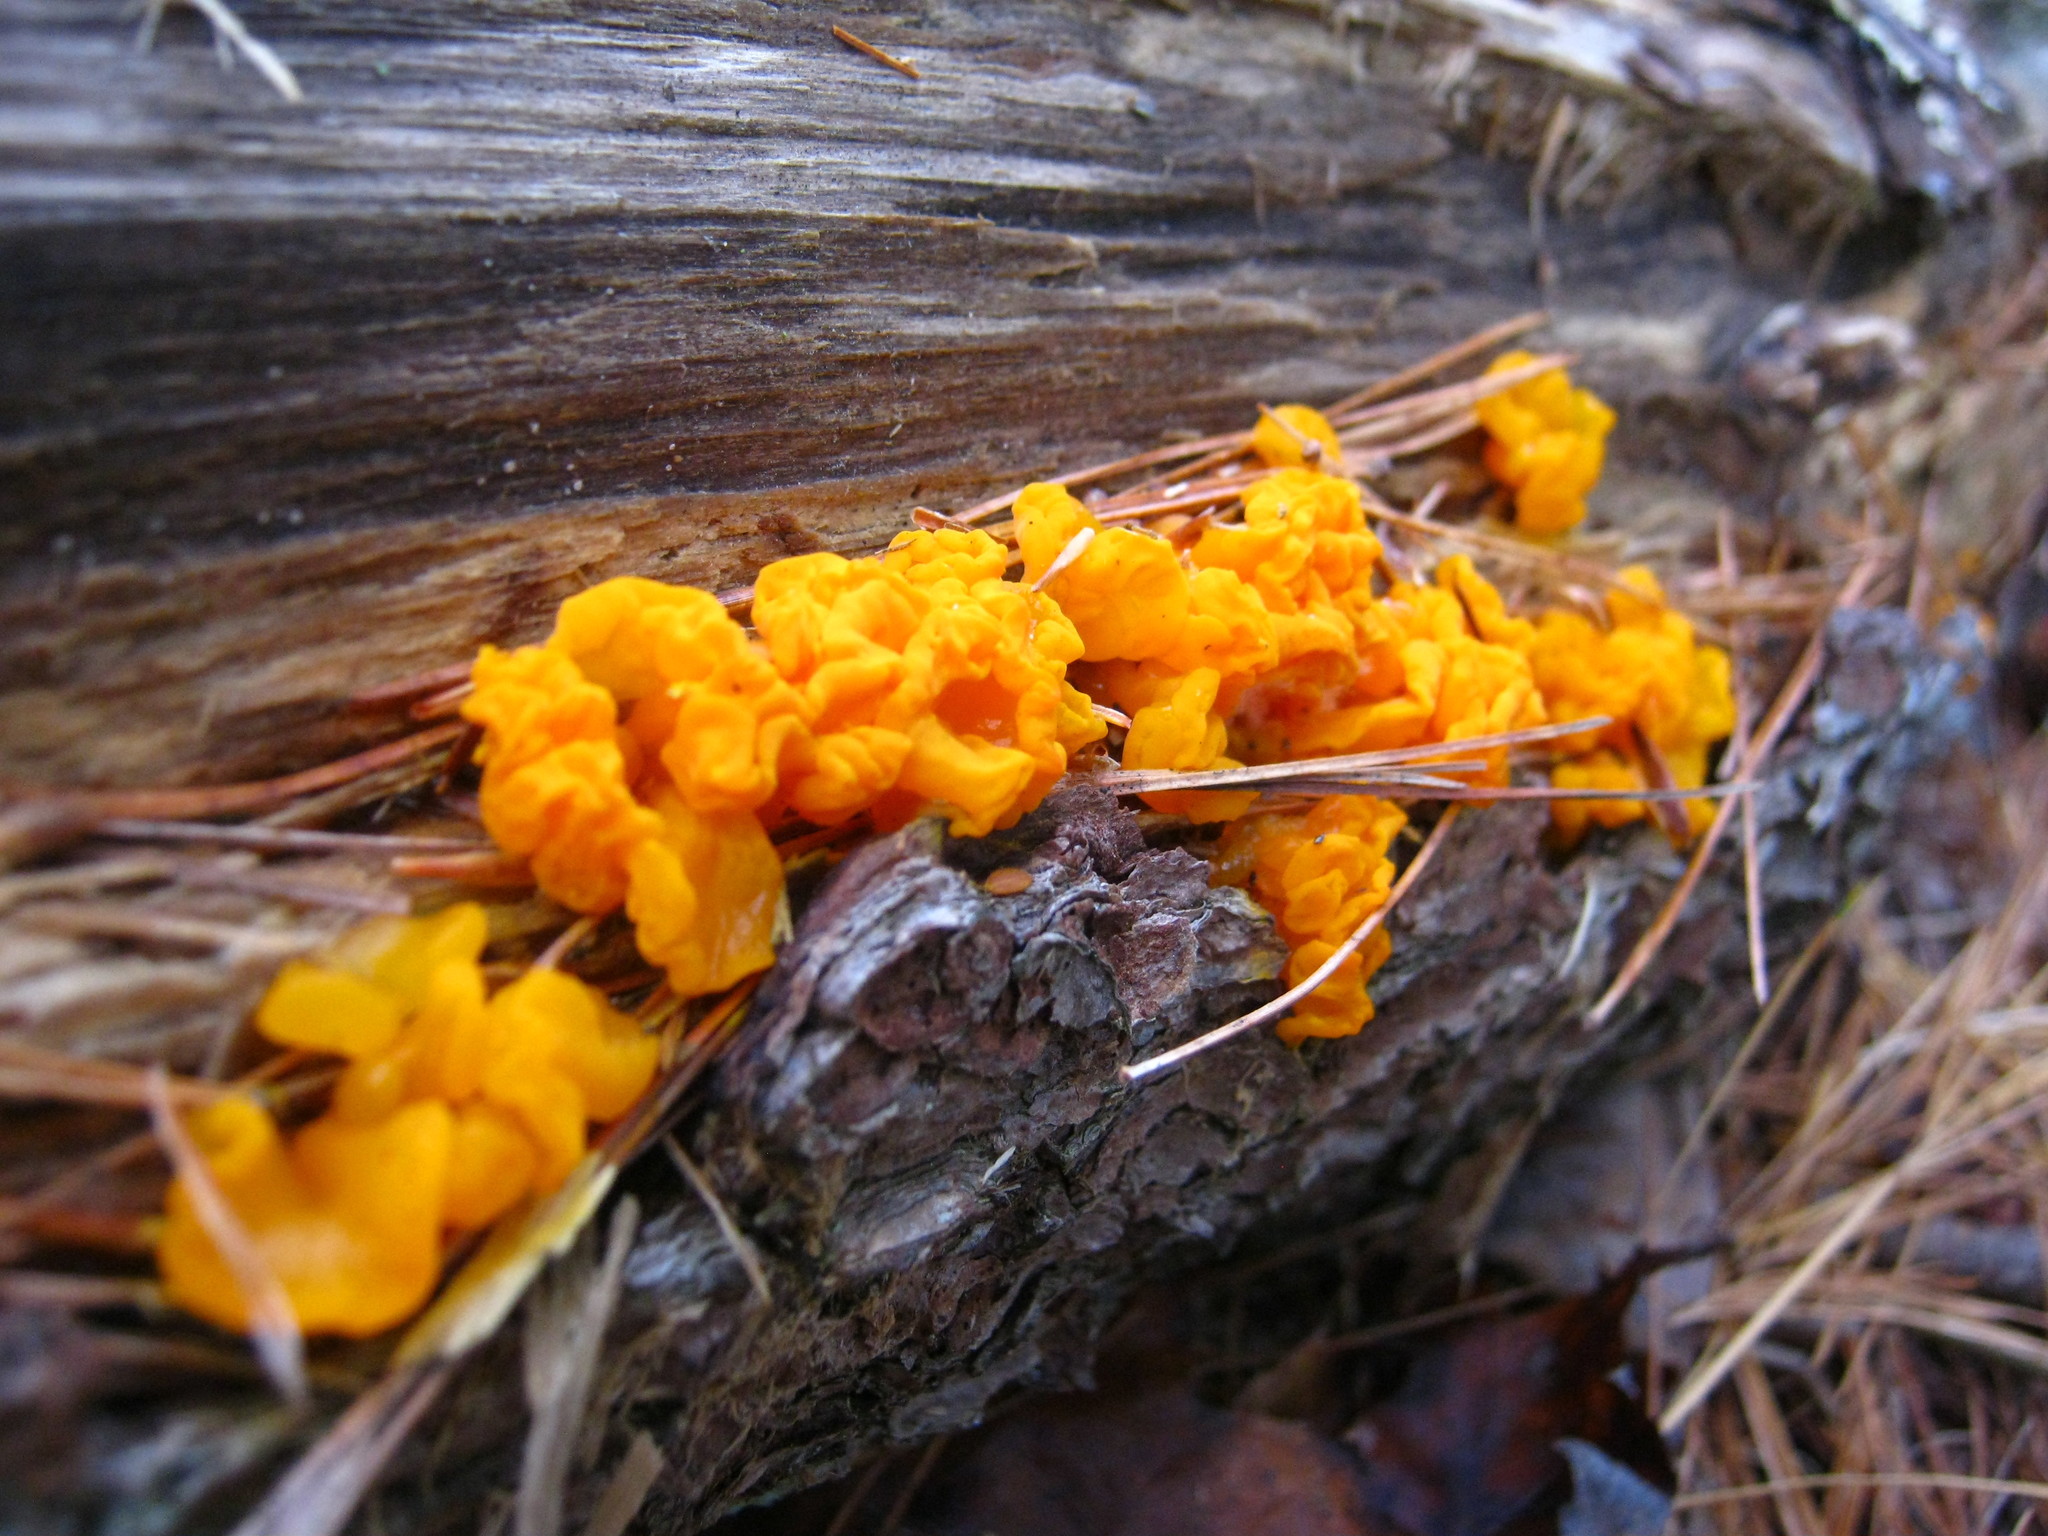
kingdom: Fungi
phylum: Basidiomycota
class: Dacrymycetes
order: Dacrymycetales
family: Dacrymycetaceae
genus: Dacrymyces
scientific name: Dacrymyces chrysospermus
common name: Orange jelly spot
